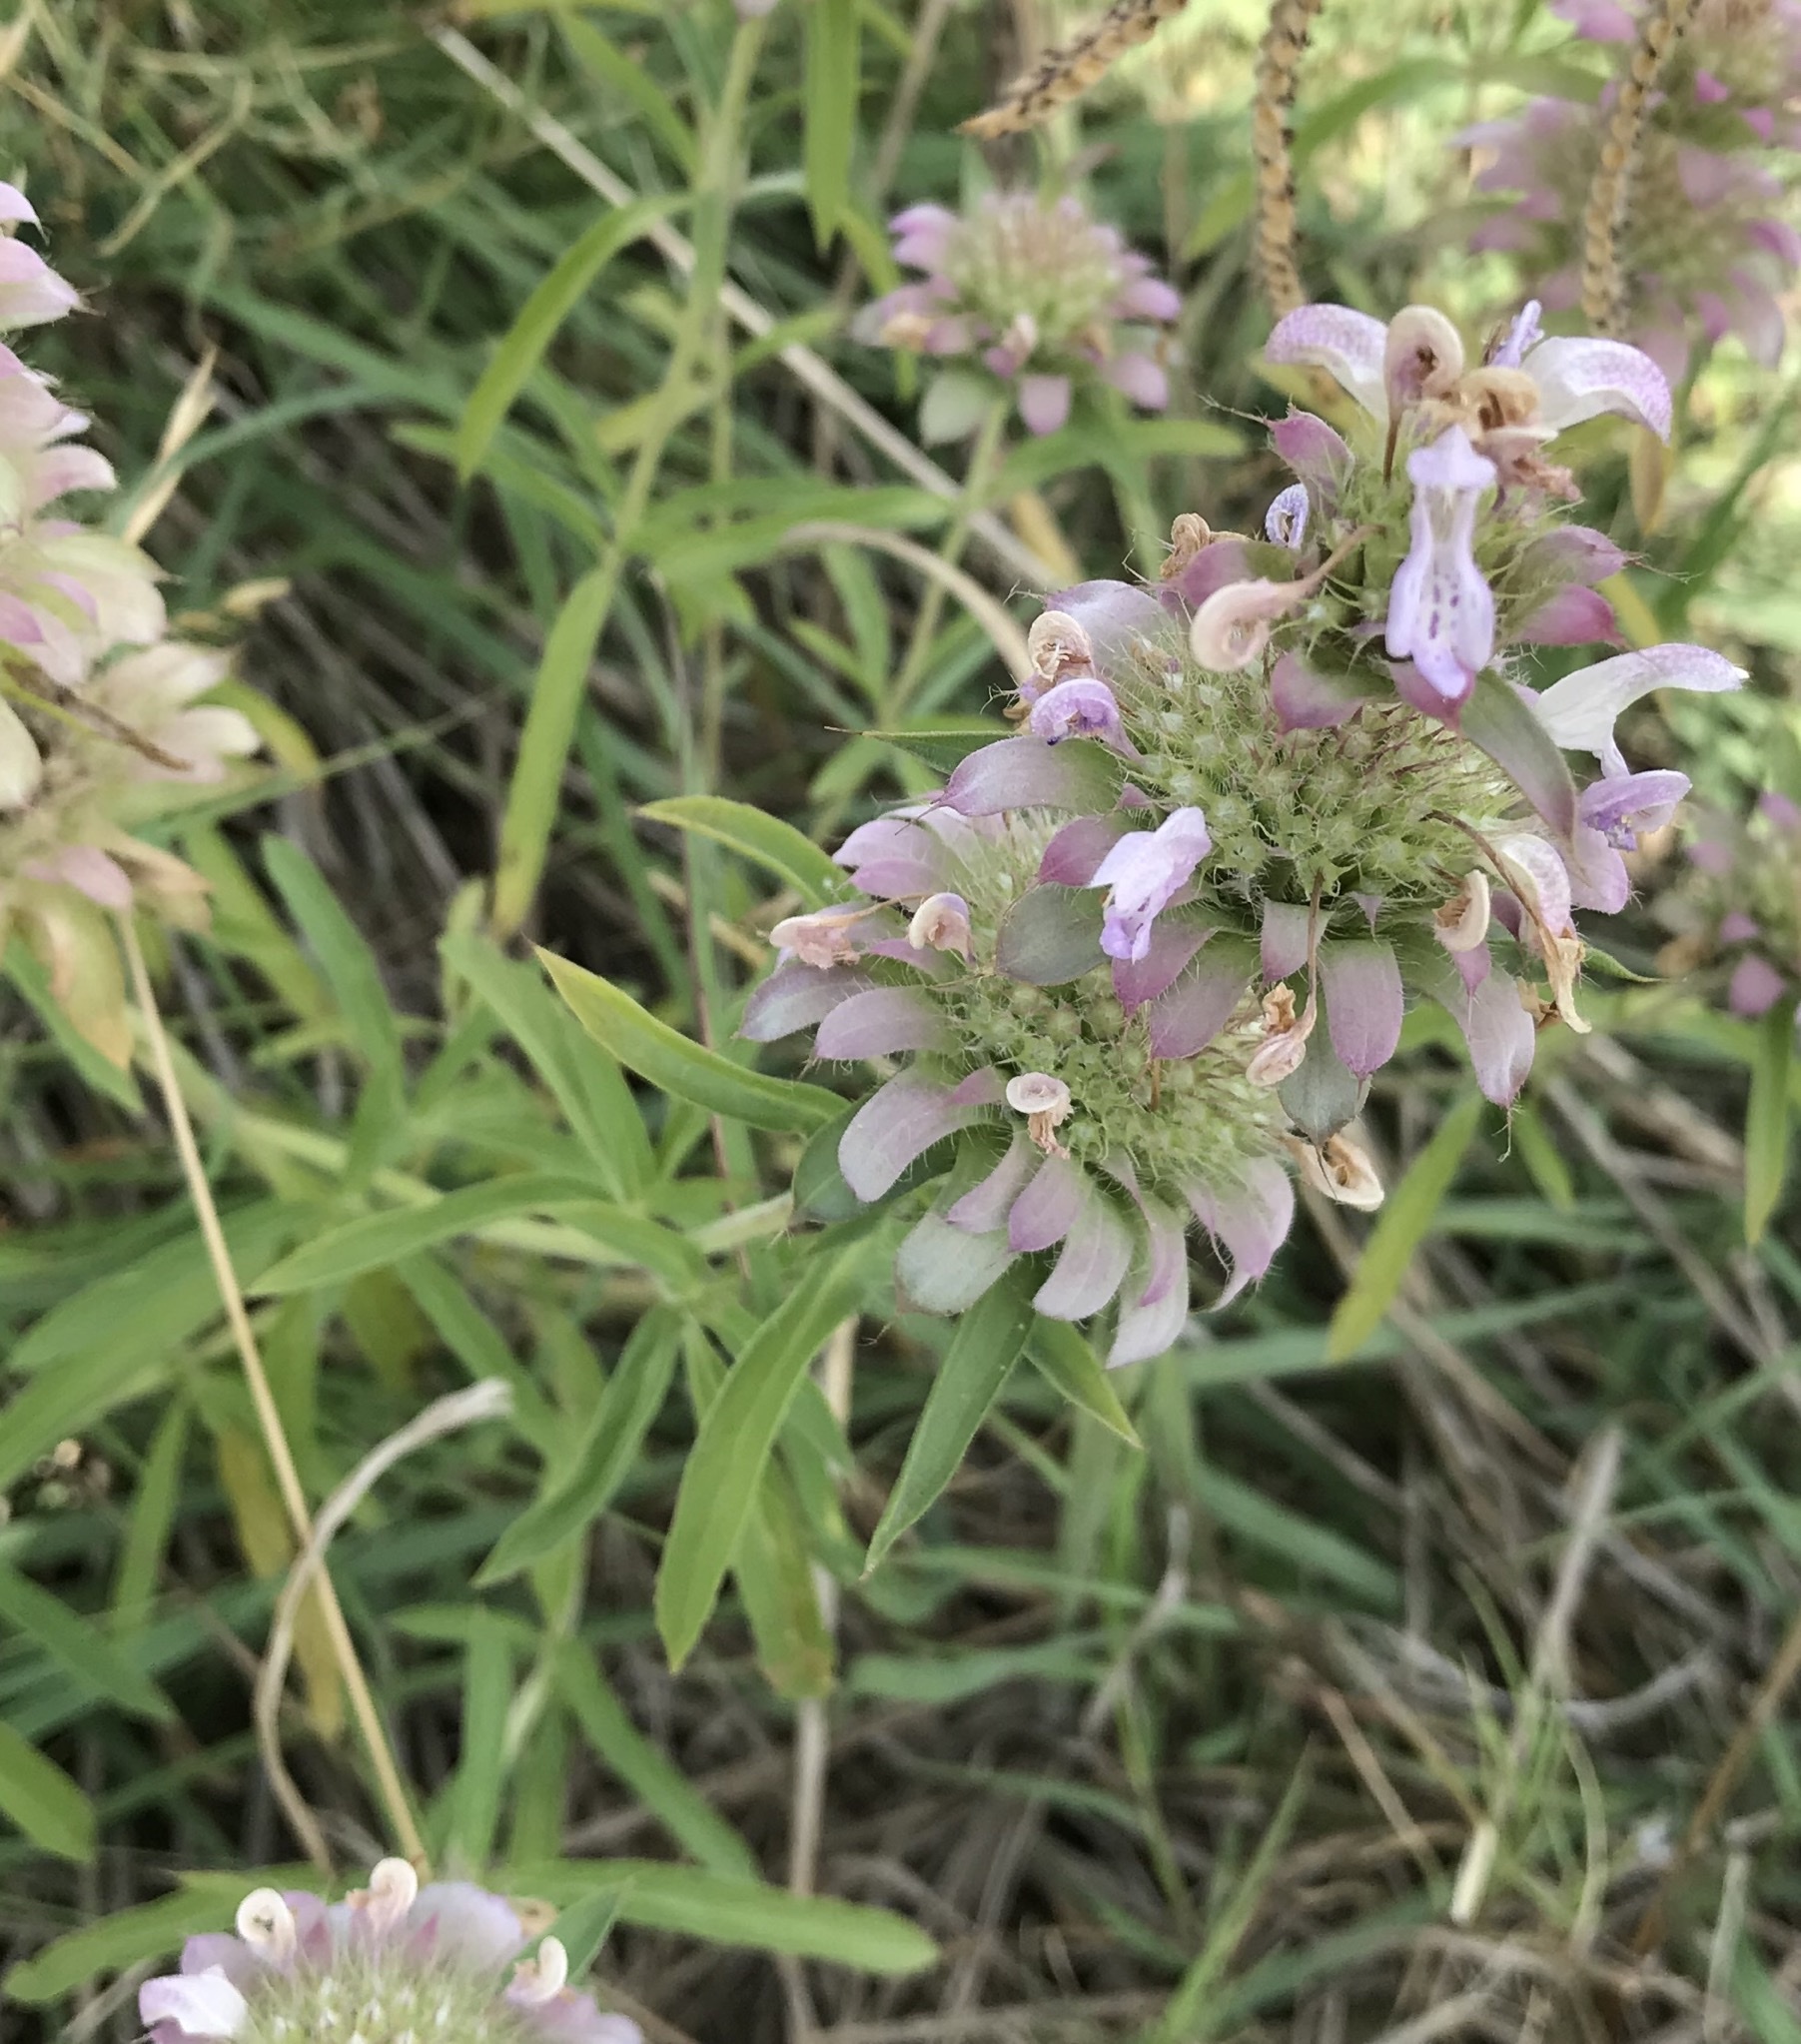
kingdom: Plantae
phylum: Tracheophyta
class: Magnoliopsida
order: Lamiales
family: Lamiaceae
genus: Monarda
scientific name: Monarda citriodora
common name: Lemon beebalm
